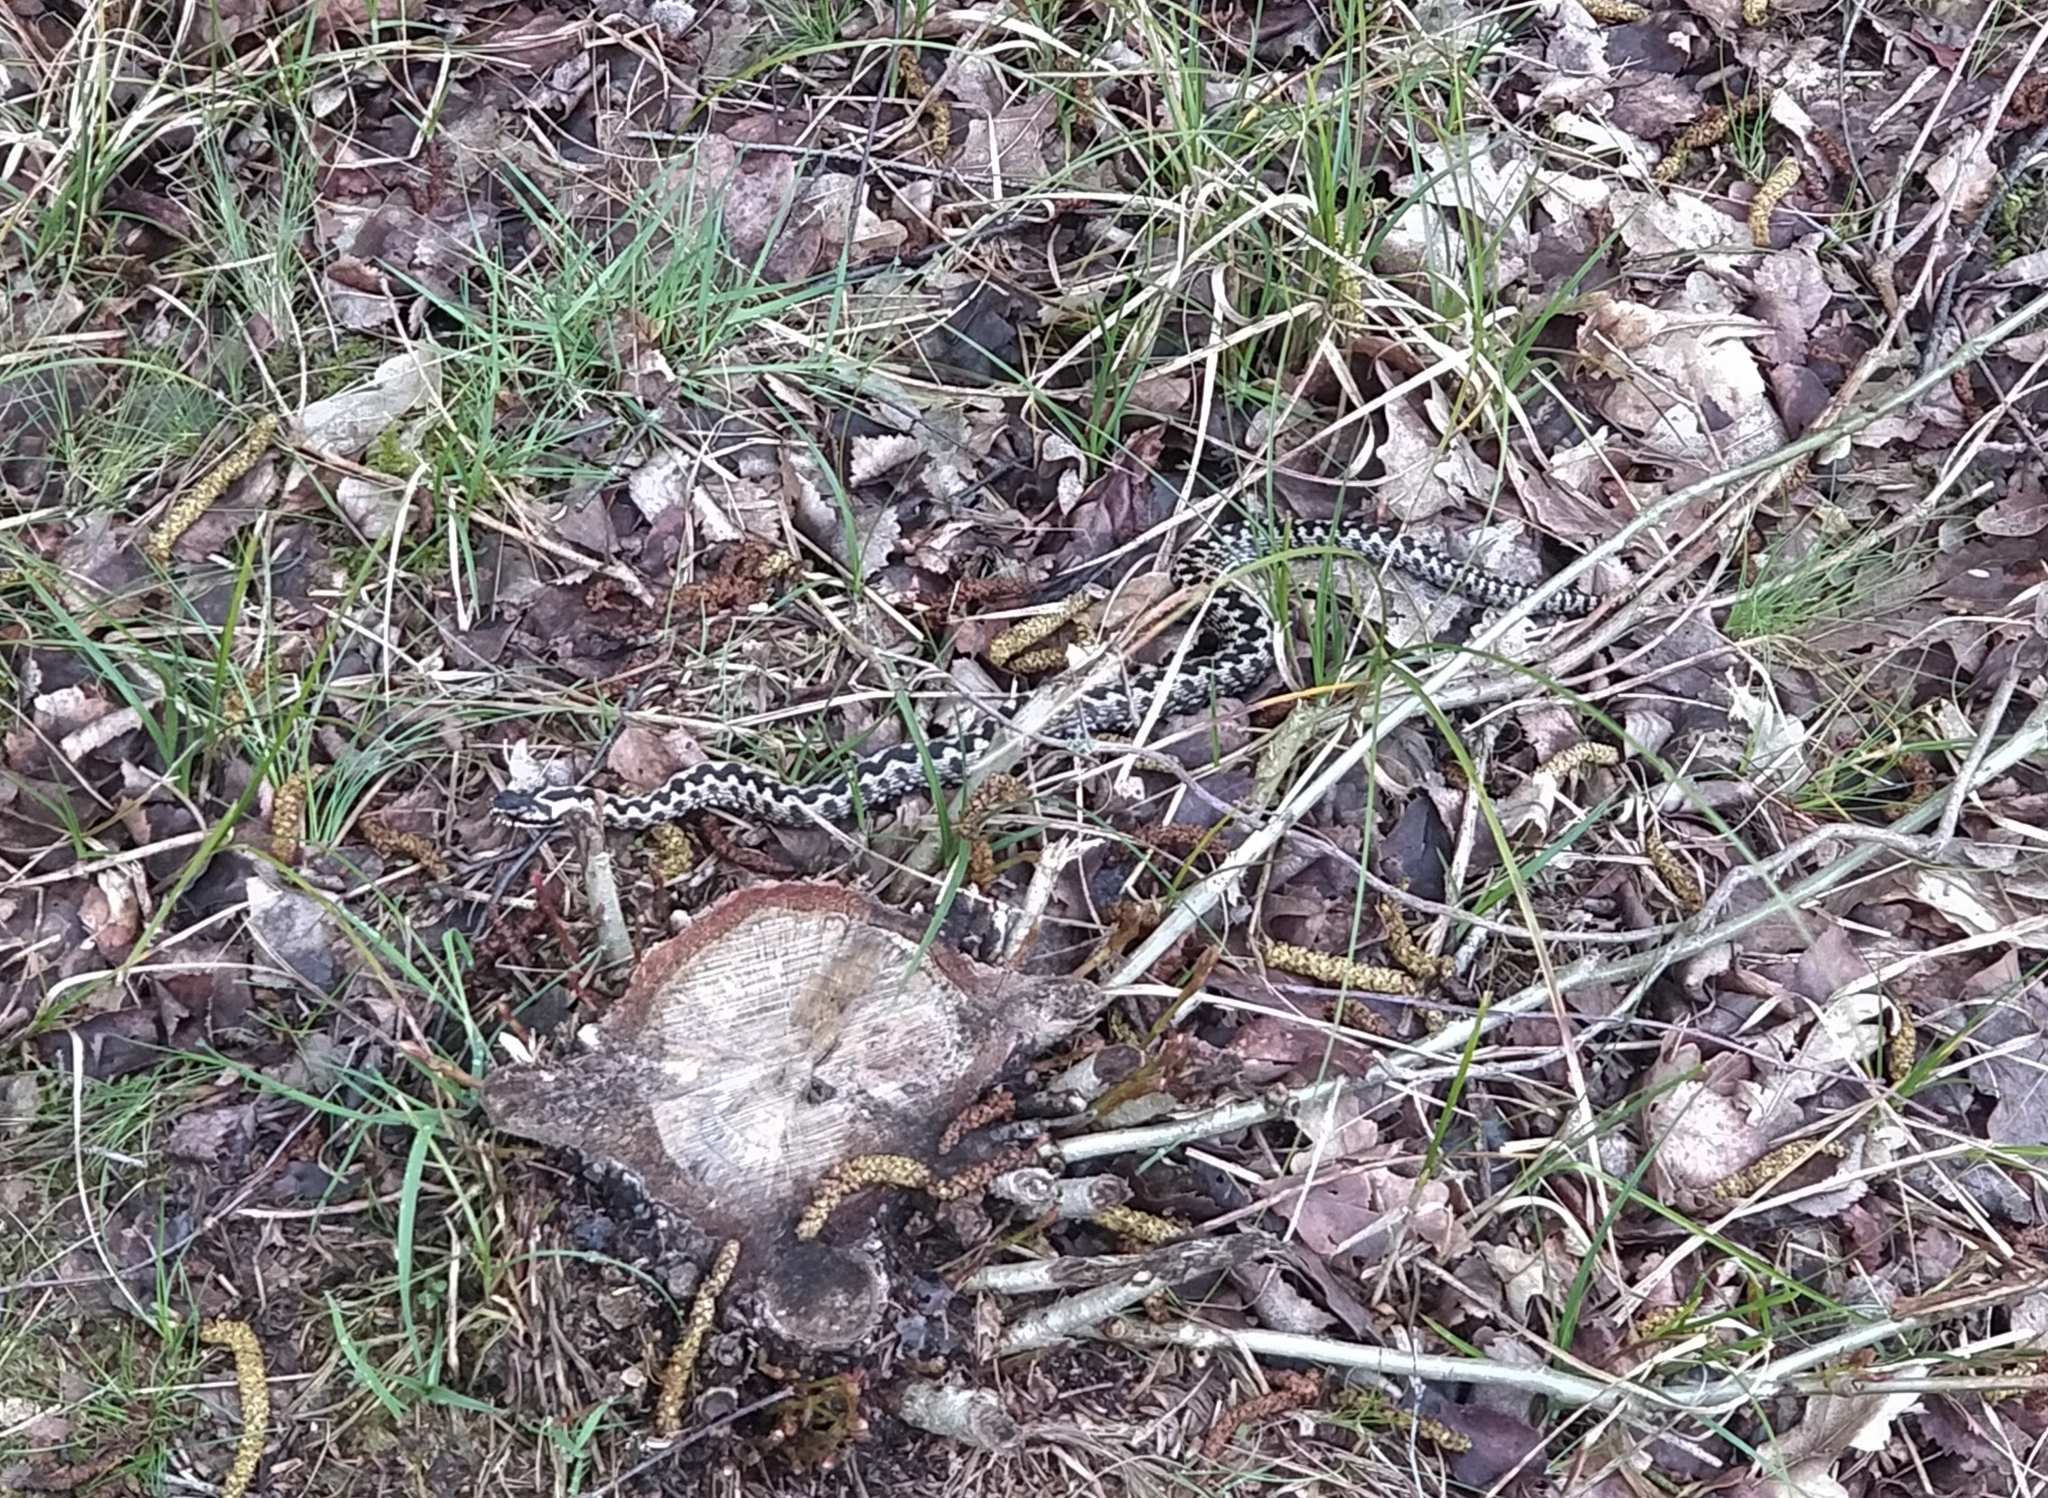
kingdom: Animalia
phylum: Chordata
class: Squamata
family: Viperidae
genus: Vipera
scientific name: Vipera berus
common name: Adder
